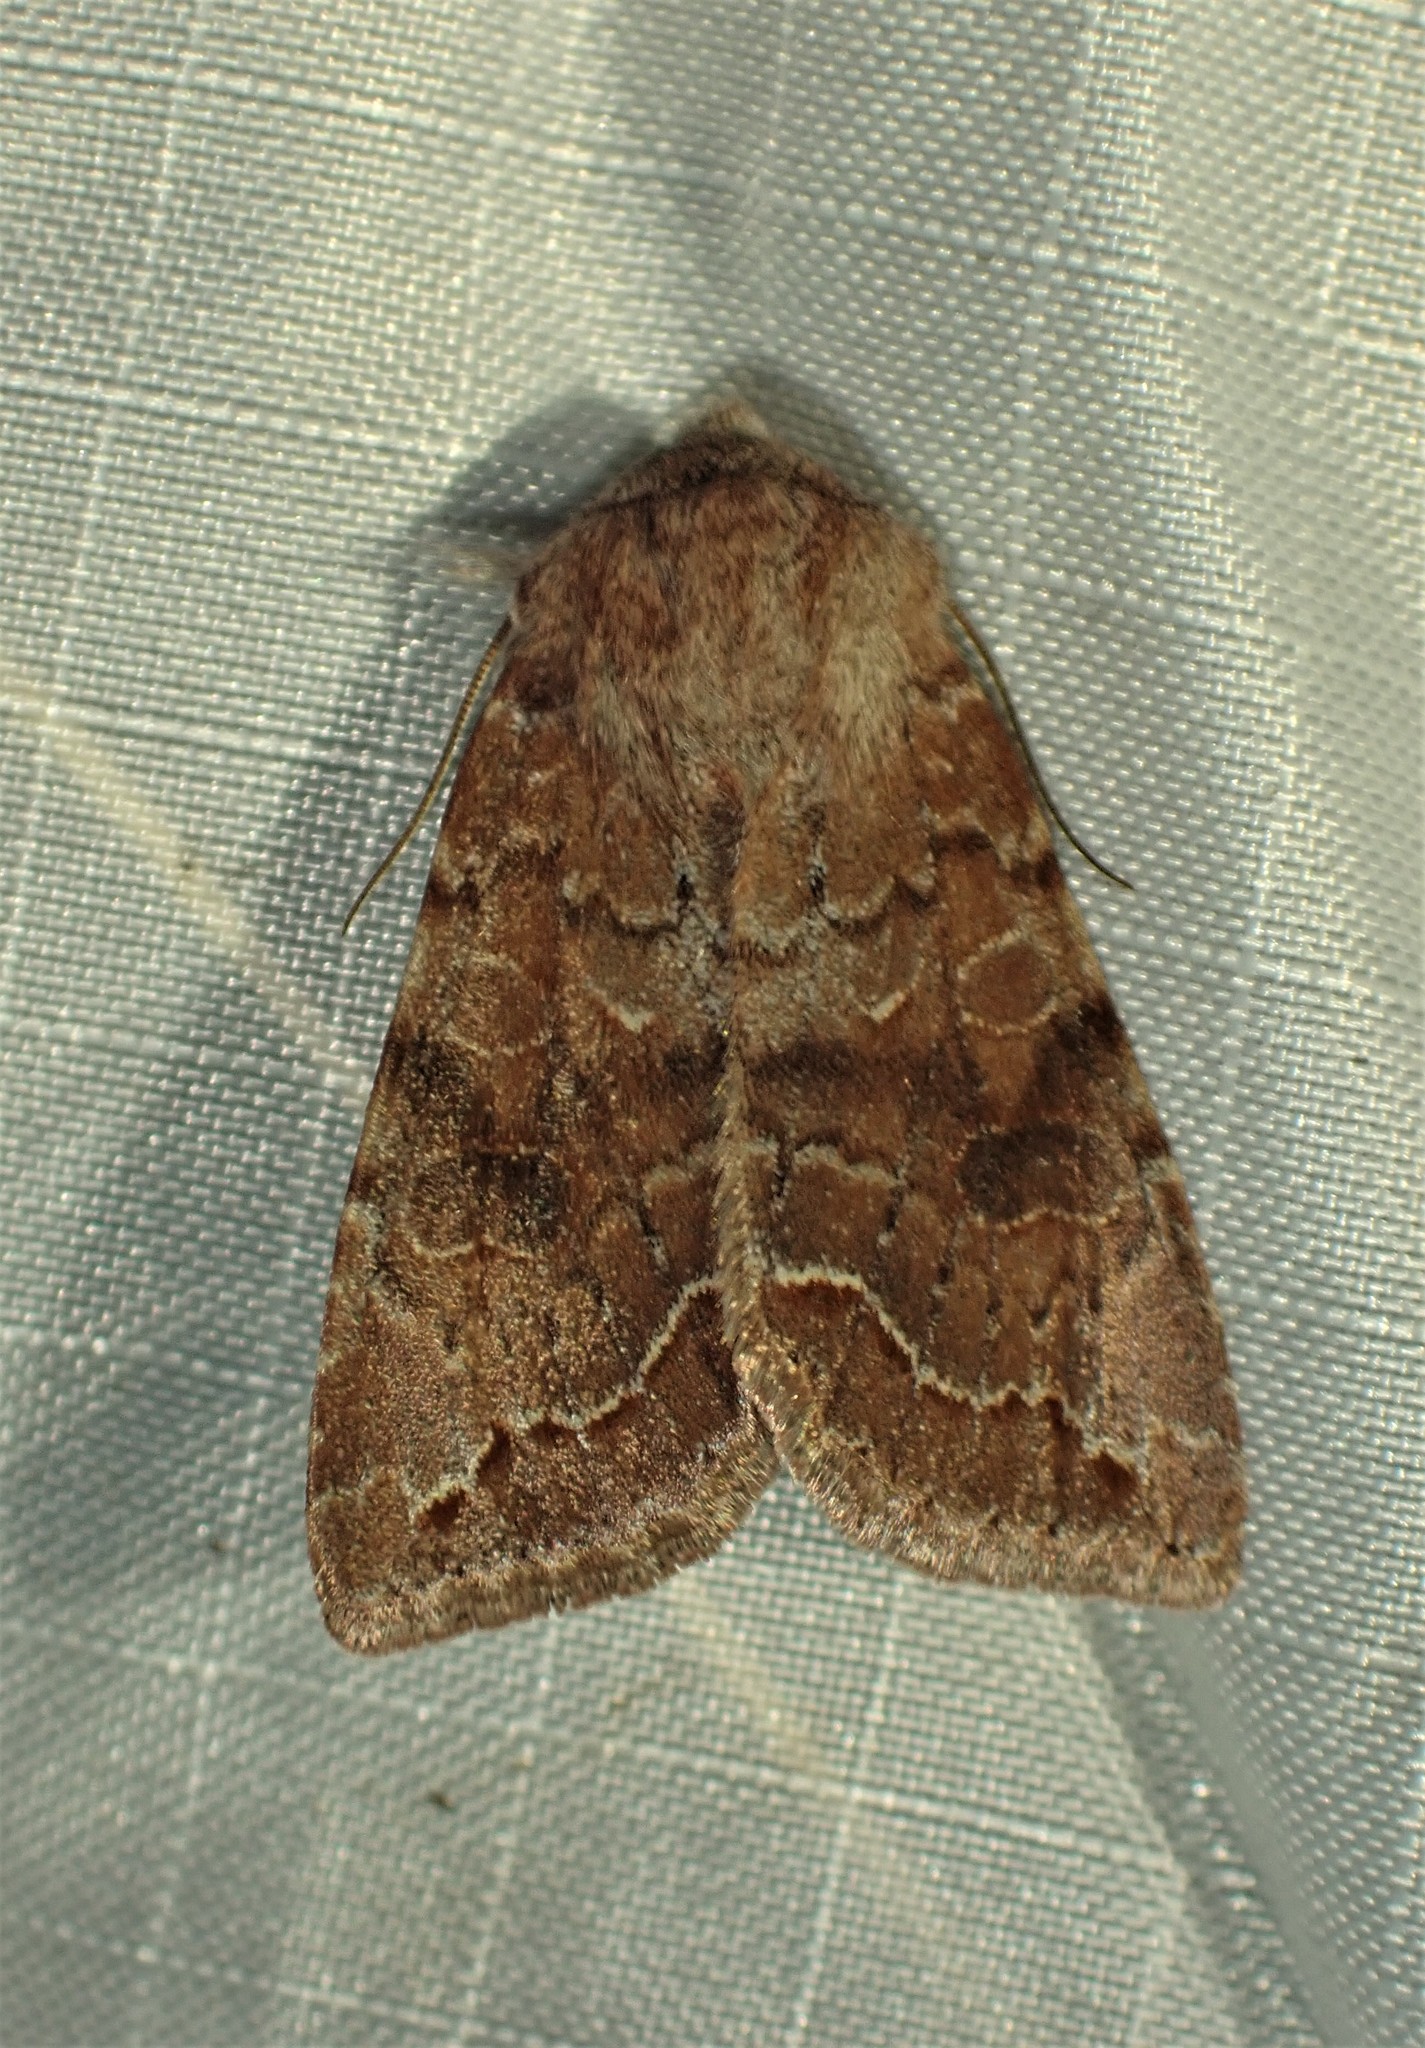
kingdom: Animalia
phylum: Arthropoda
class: Insecta
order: Lepidoptera
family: Noctuidae
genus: Orthosia
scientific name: Orthosia revicta
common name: Rusty whitesided caterpillar
